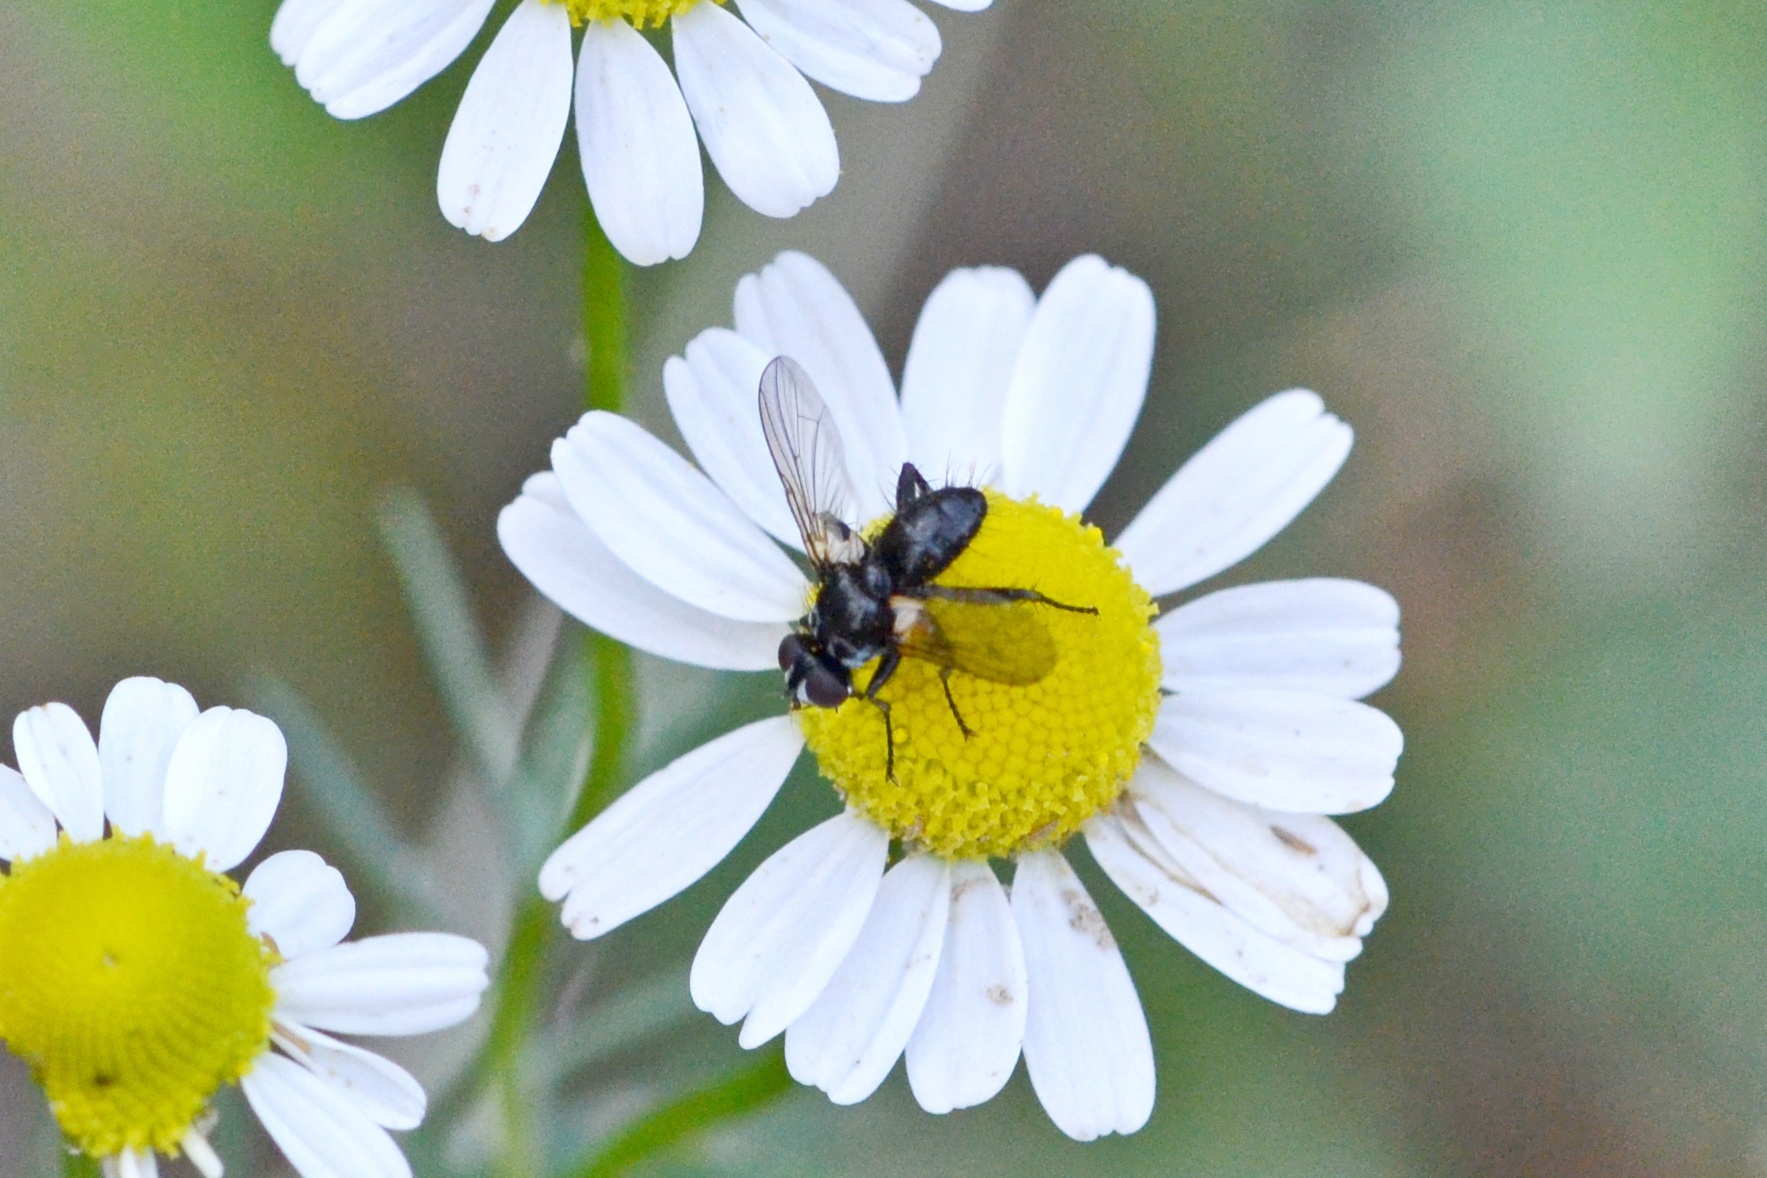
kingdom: Animalia
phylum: Arthropoda
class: Insecta
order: Diptera
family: Tachinidae
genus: Phania
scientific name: Phania funesta
